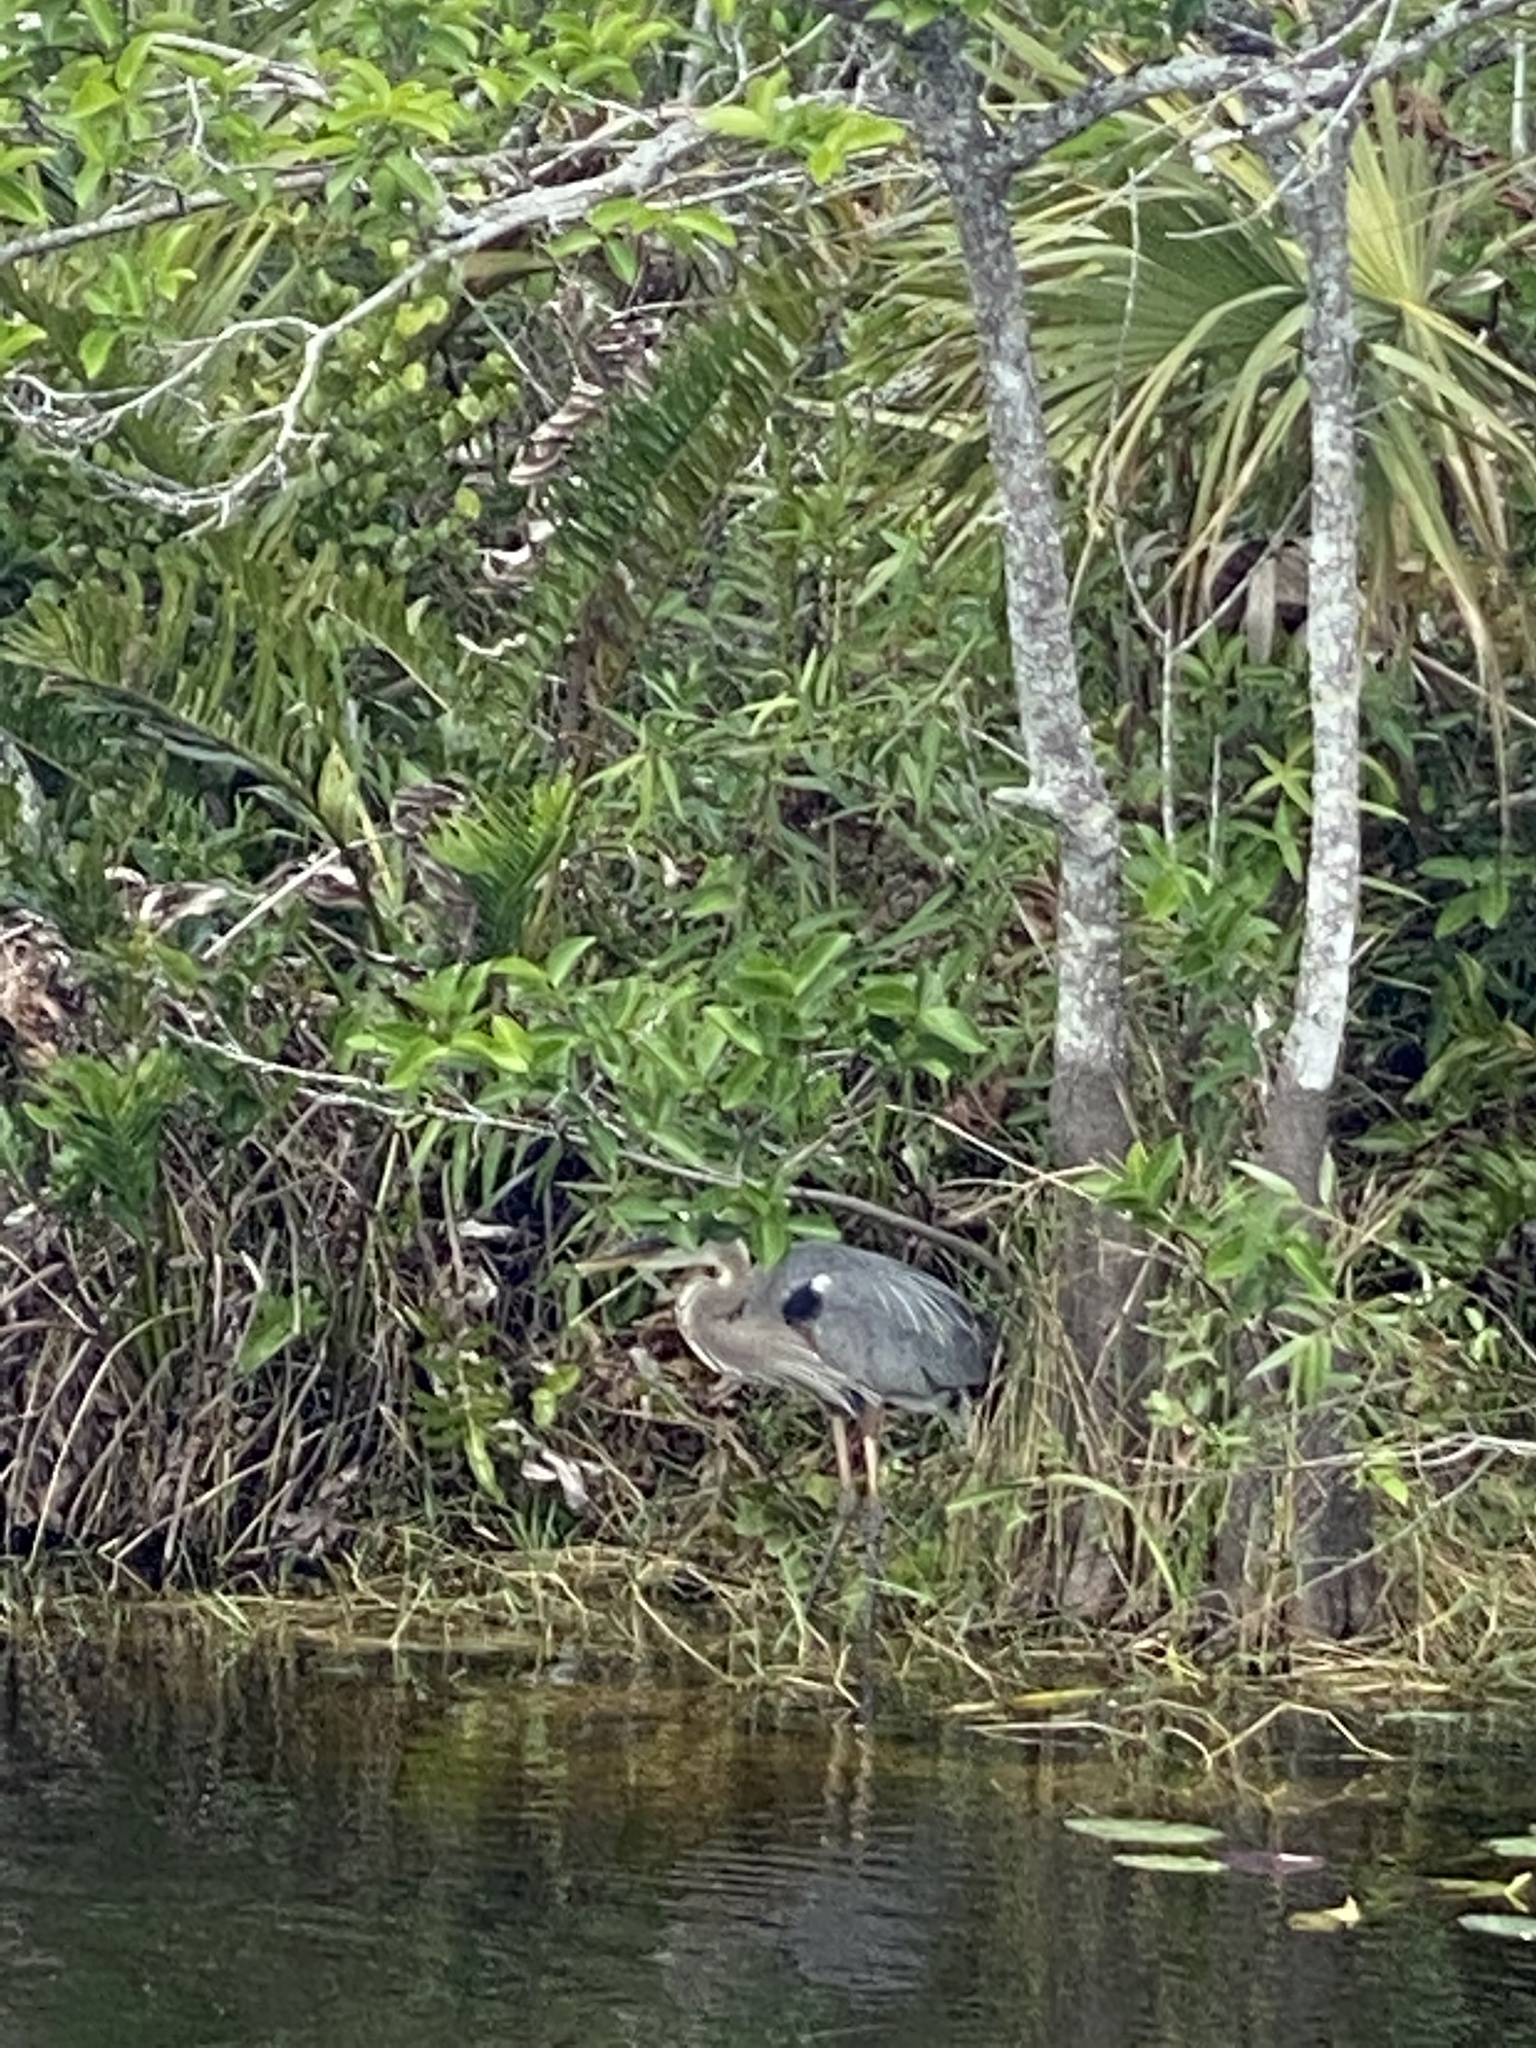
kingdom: Animalia
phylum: Chordata
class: Aves
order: Pelecaniformes
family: Ardeidae
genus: Ardea
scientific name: Ardea herodias
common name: Great blue heron
